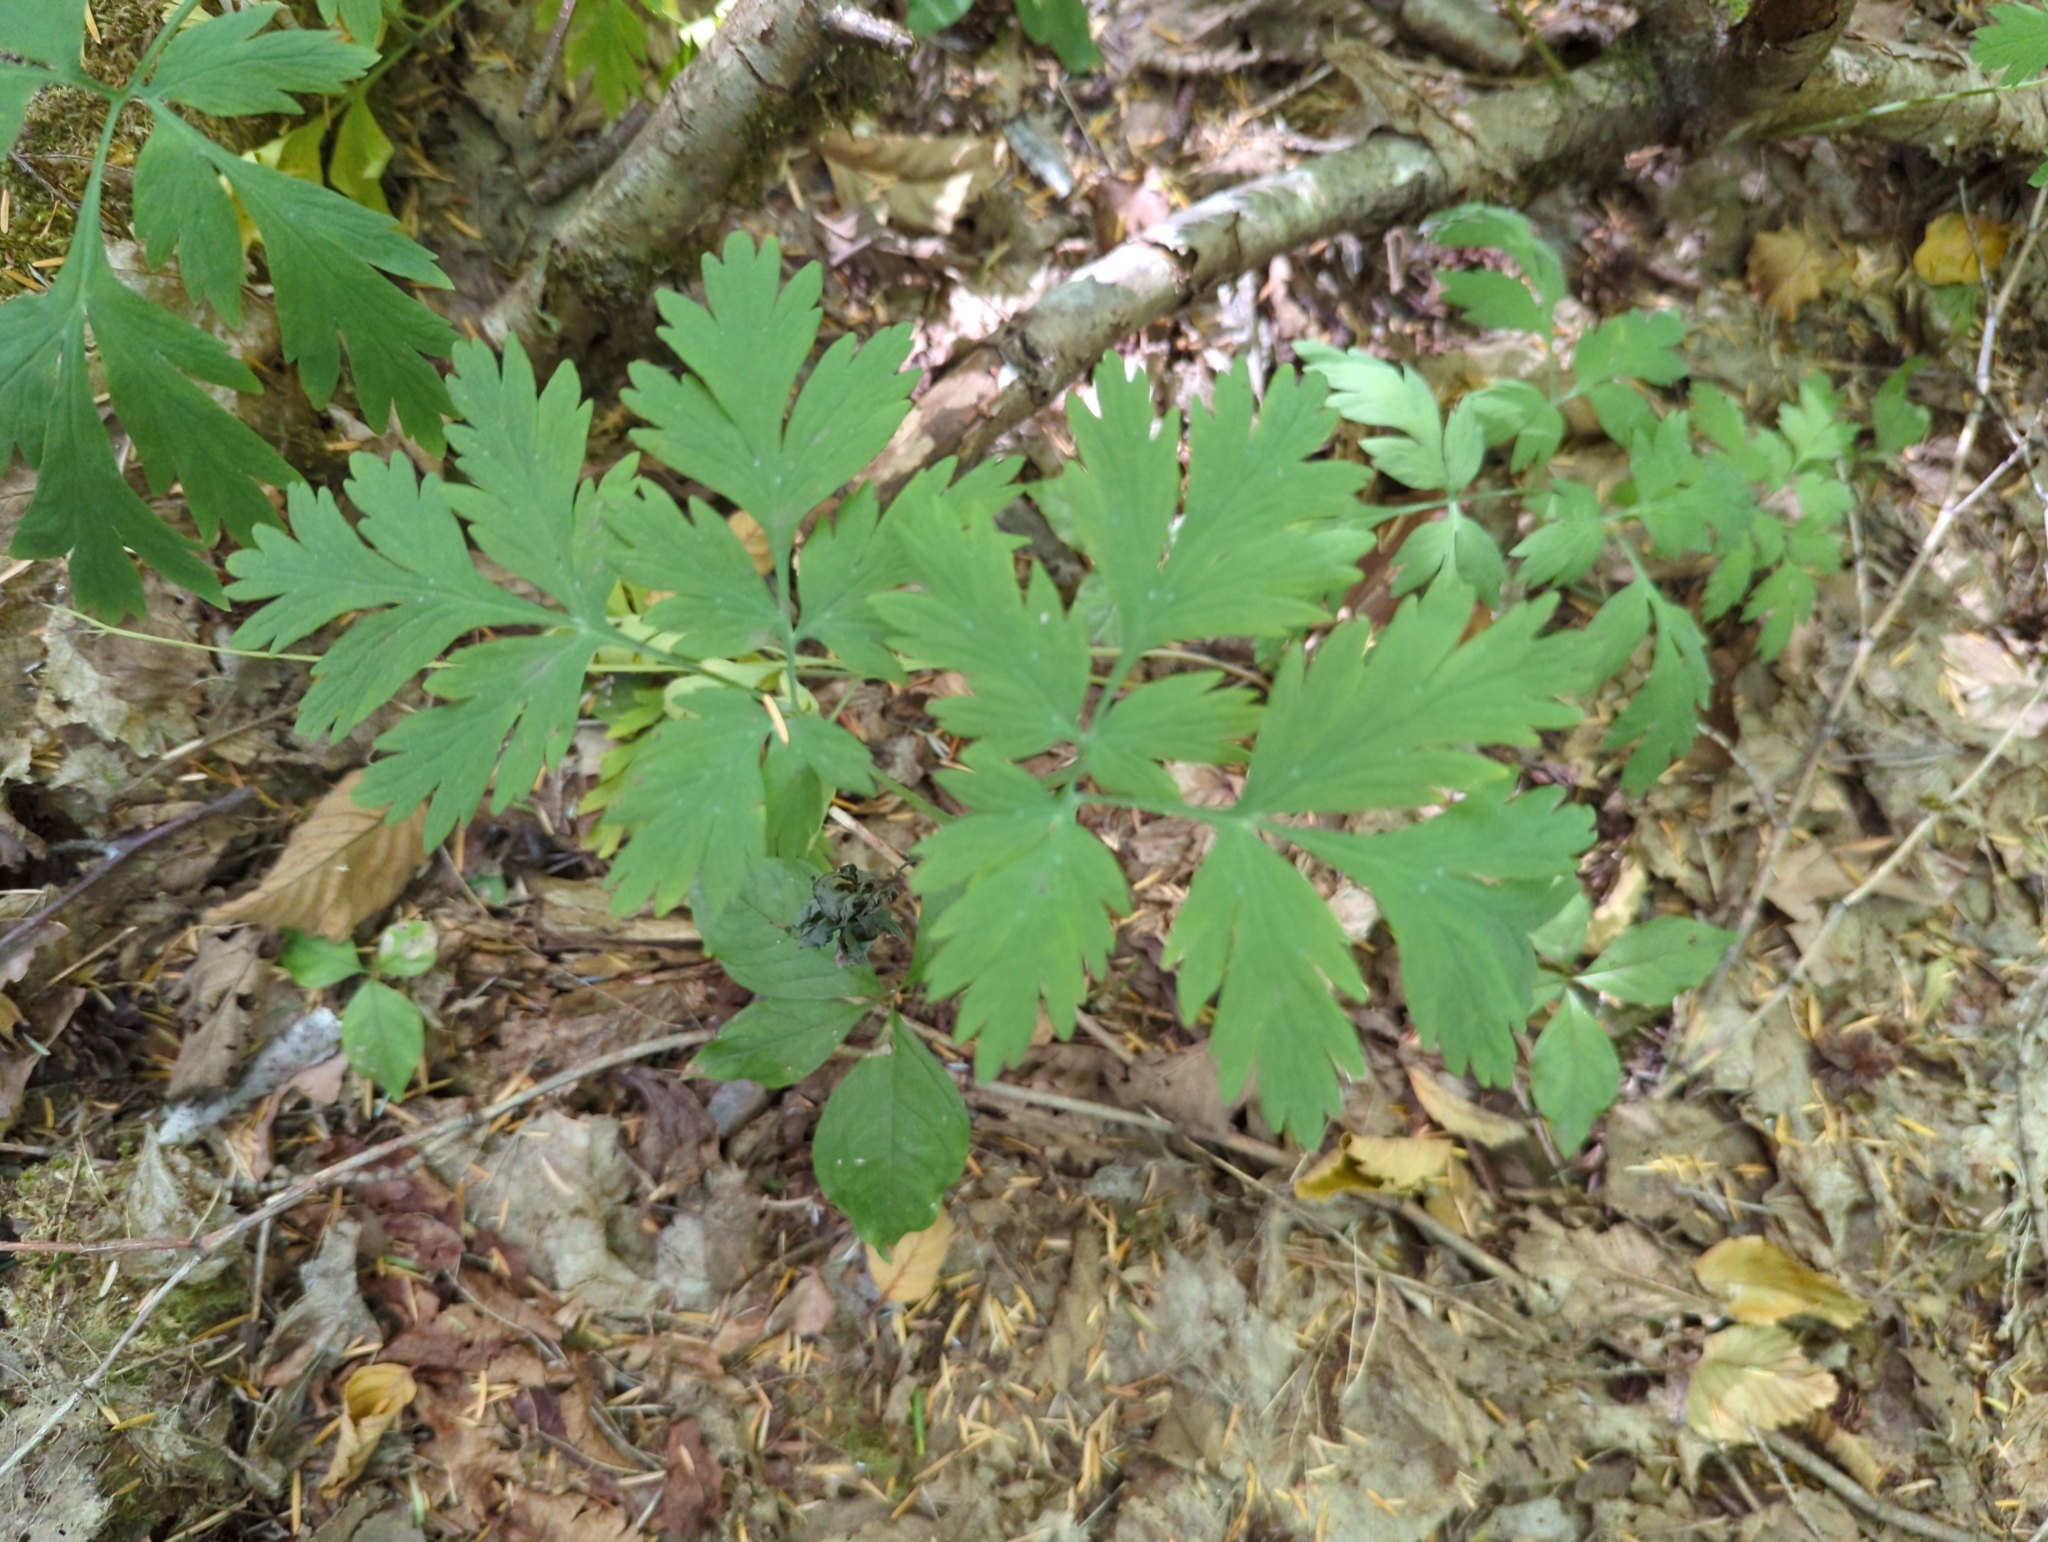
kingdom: Plantae
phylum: Tracheophyta
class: Magnoliopsida
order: Ranunculales
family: Papaveraceae
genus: Dicentra
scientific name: Dicentra formosa
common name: Bleeding-heart
